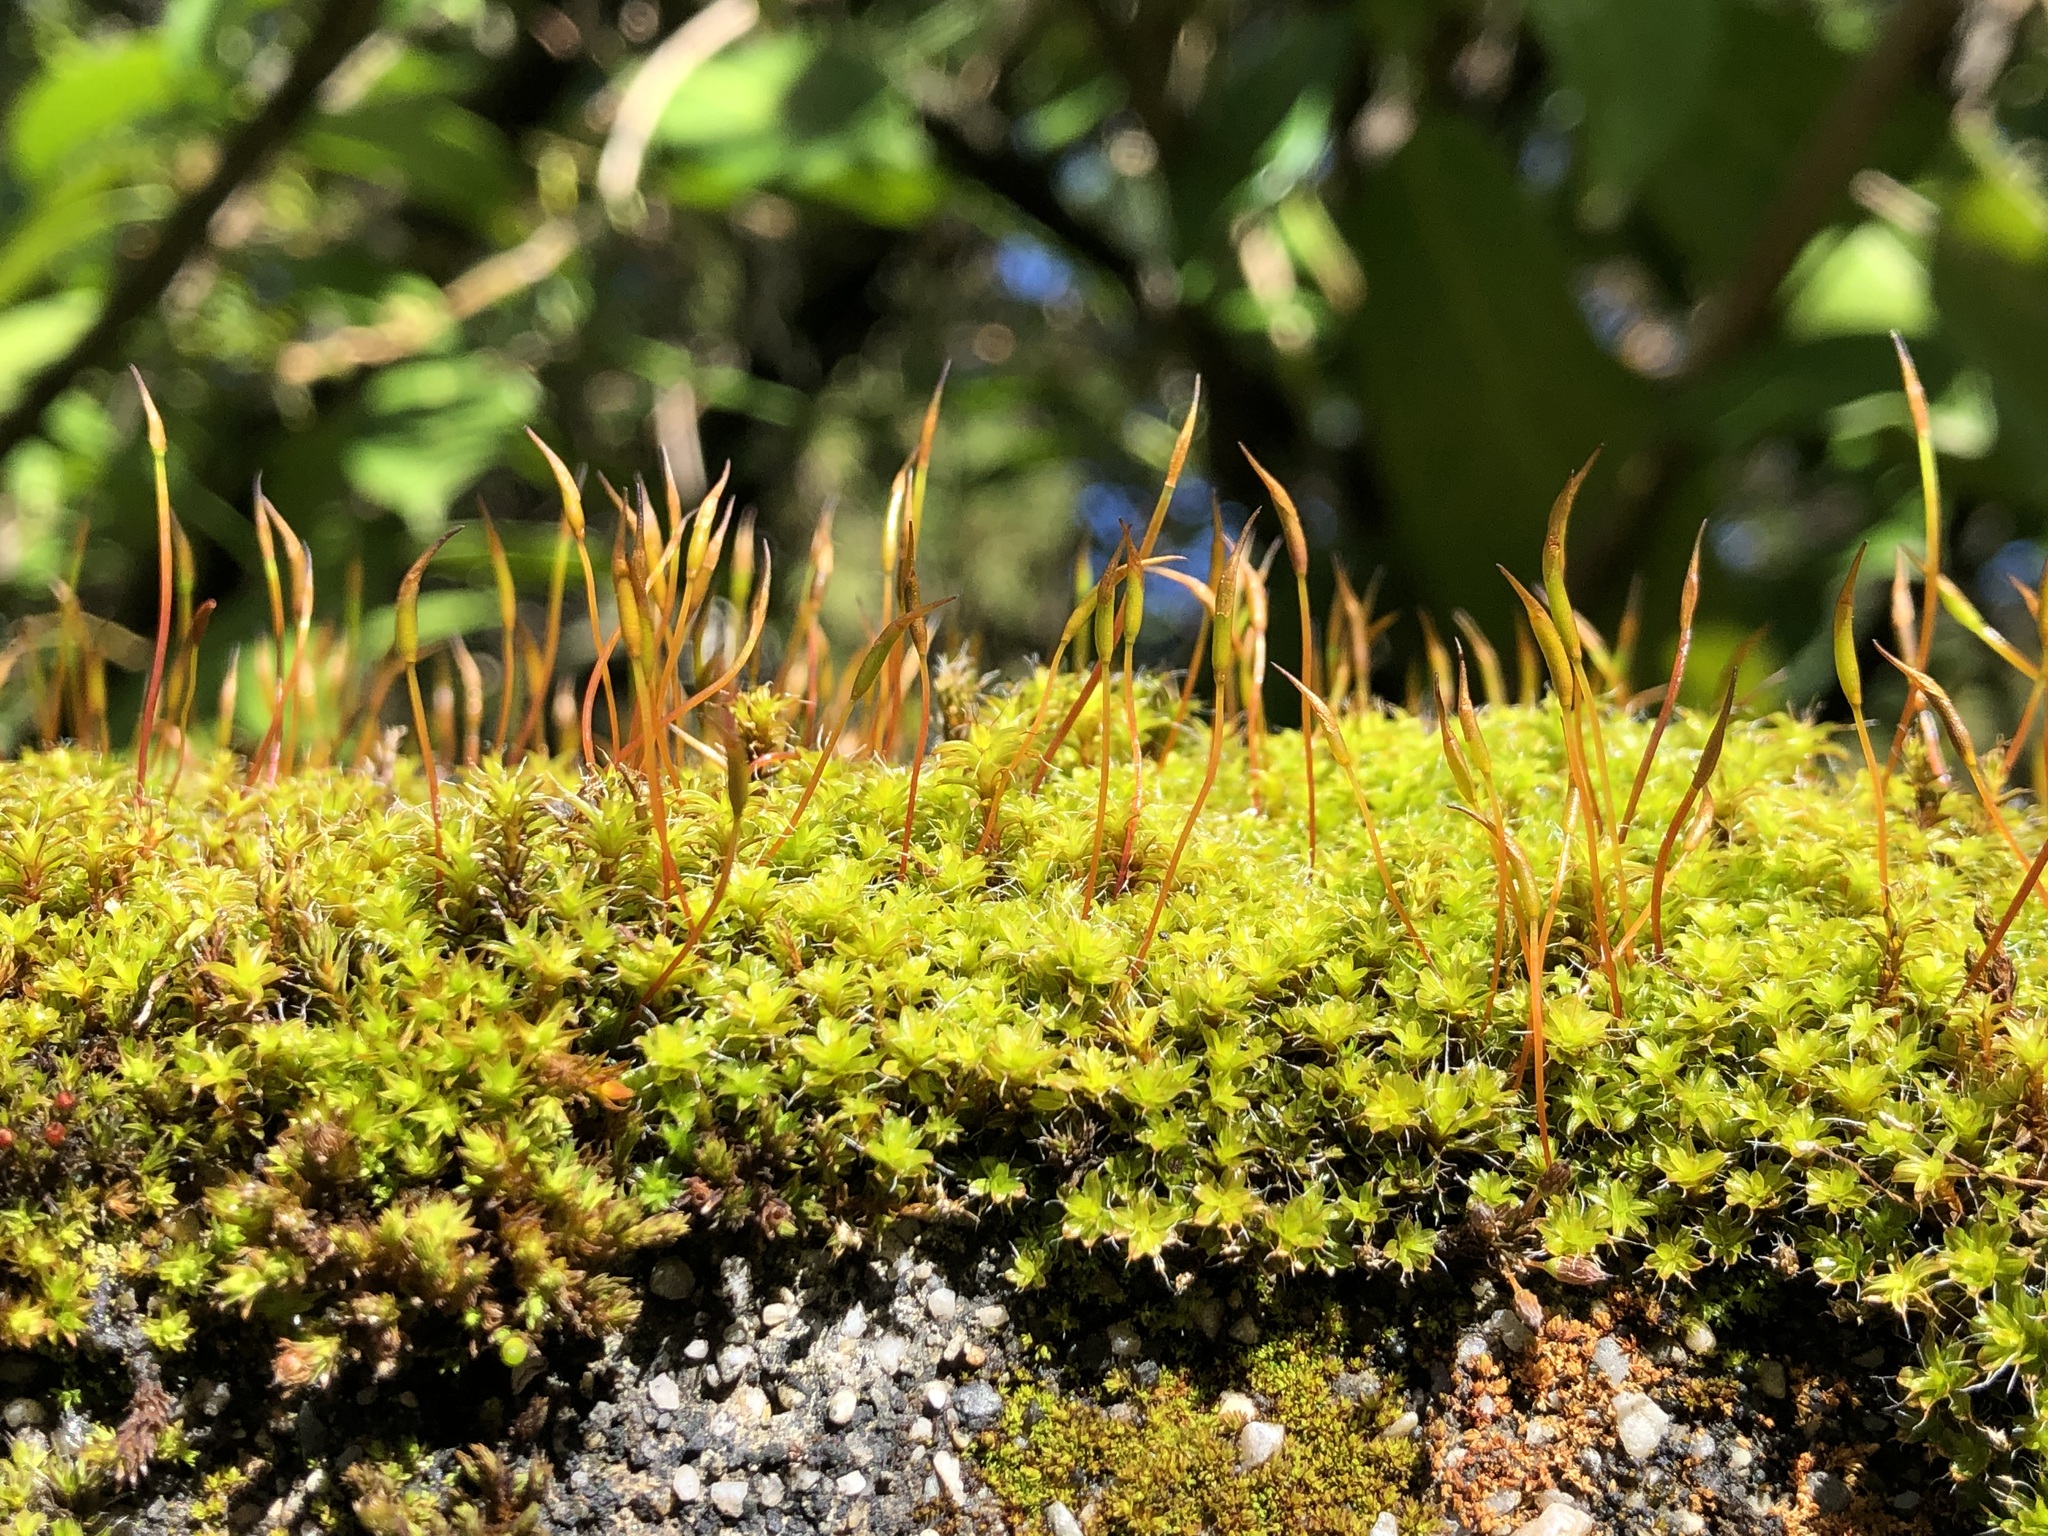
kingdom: Plantae
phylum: Bryophyta
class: Bryopsida
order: Pottiales
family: Pottiaceae
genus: Syntrichia
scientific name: Syntrichia ruralis
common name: Sidewalk screw moss
